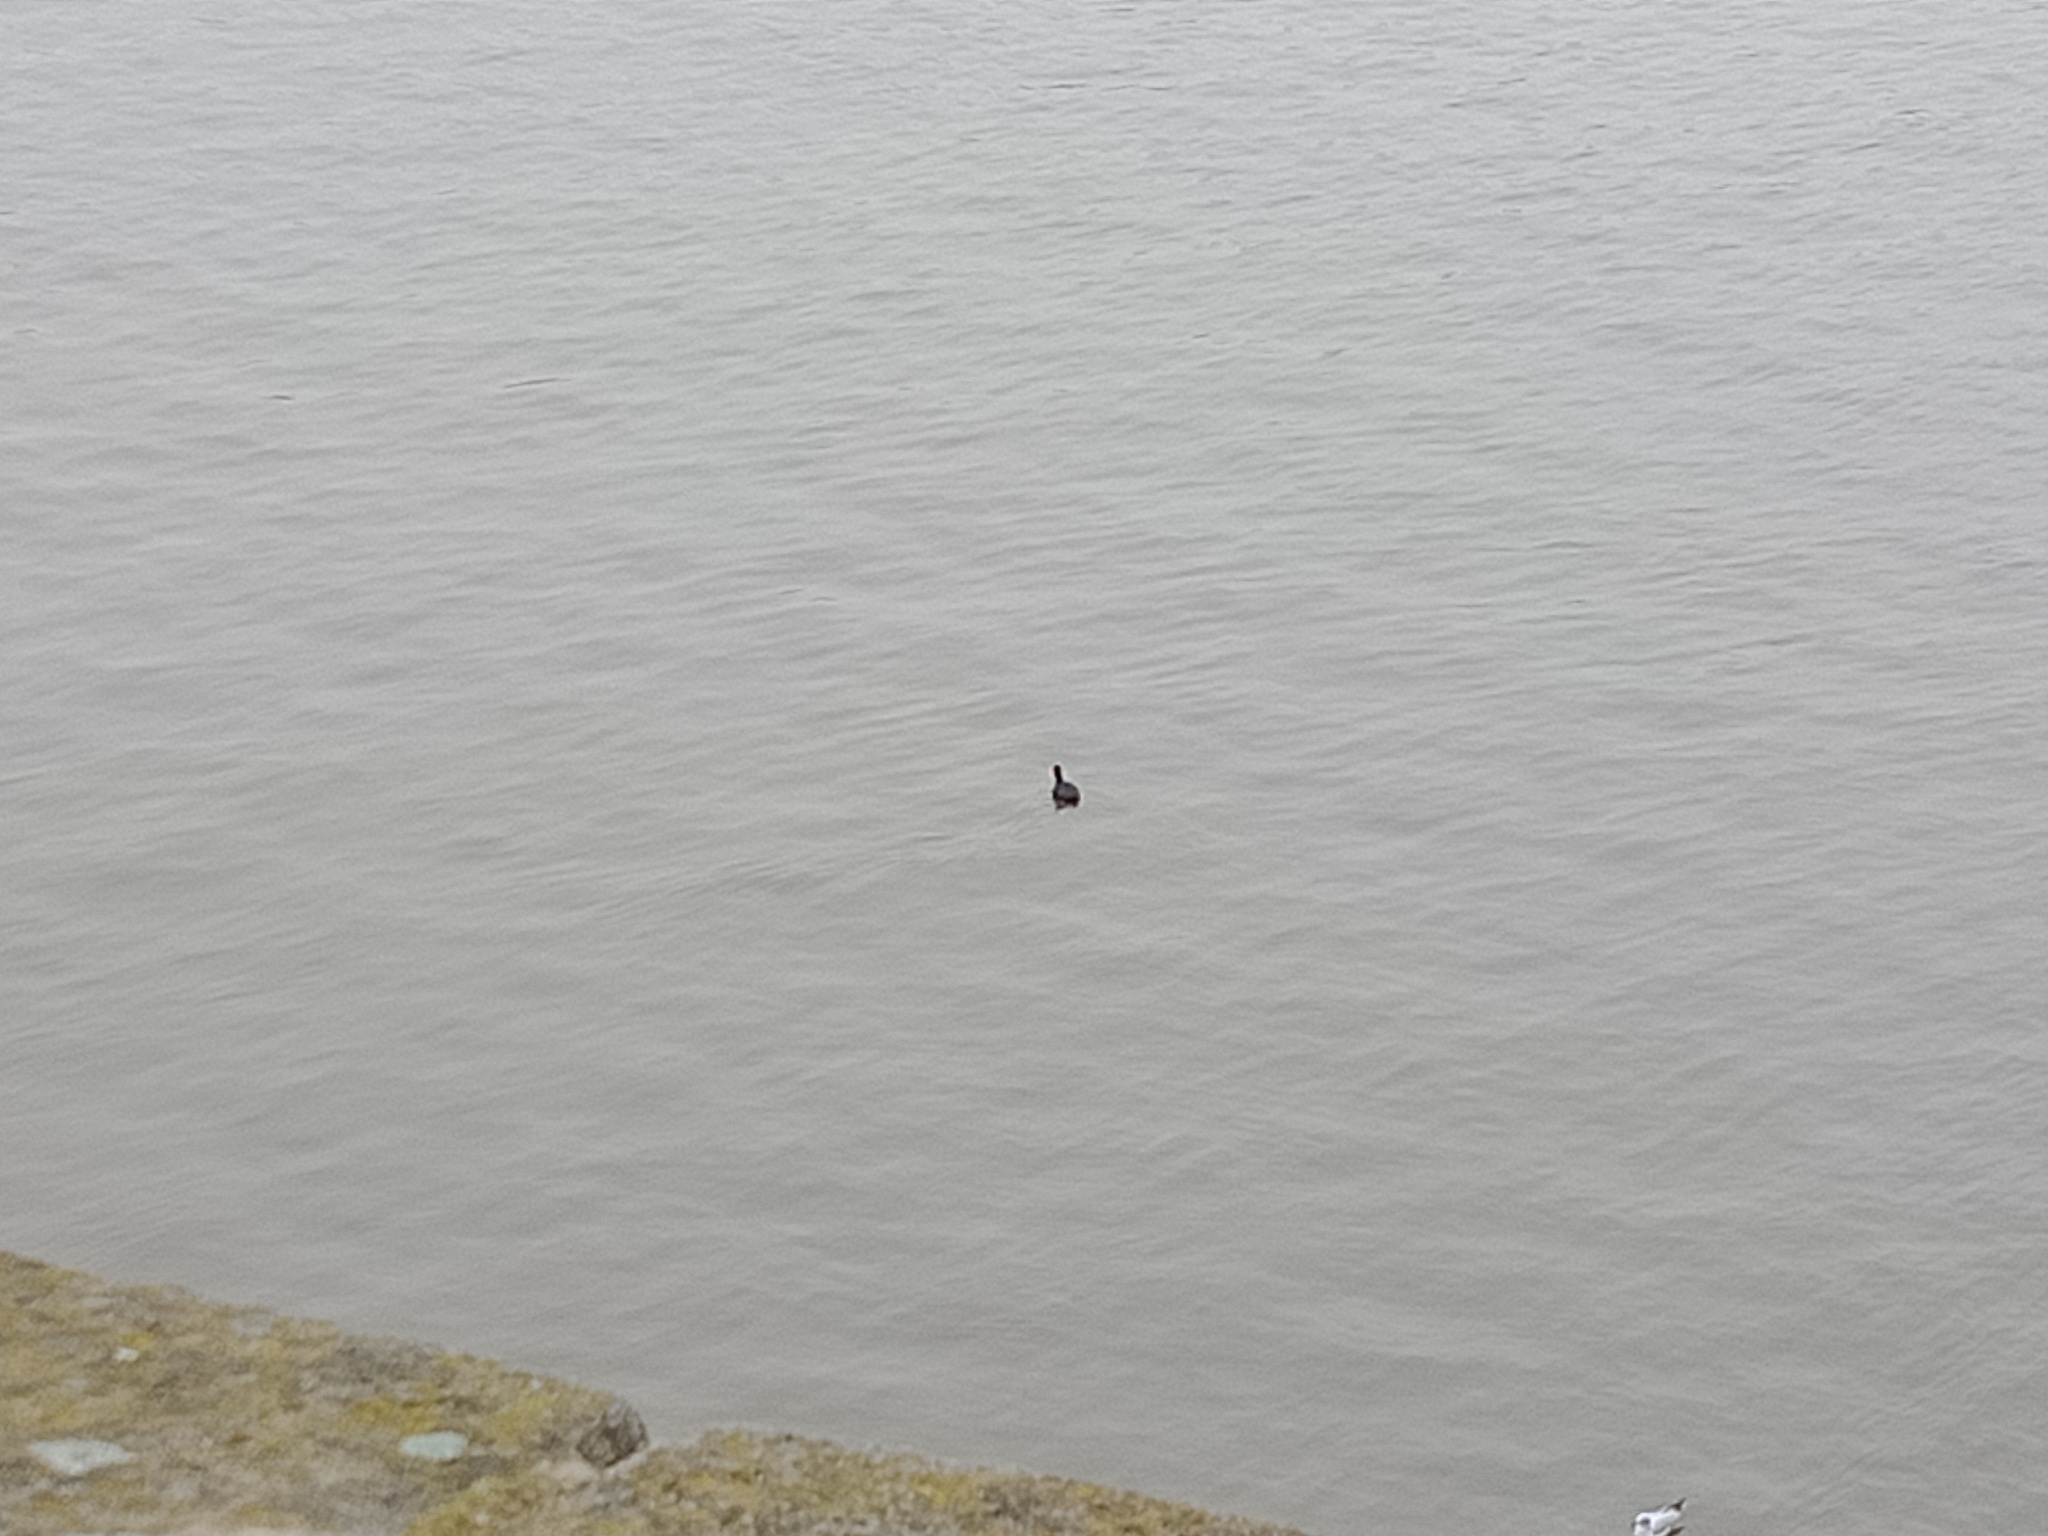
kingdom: Animalia
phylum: Chordata
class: Aves
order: Gruiformes
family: Rallidae
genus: Fulica
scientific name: Fulica atra
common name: Eurasian coot
